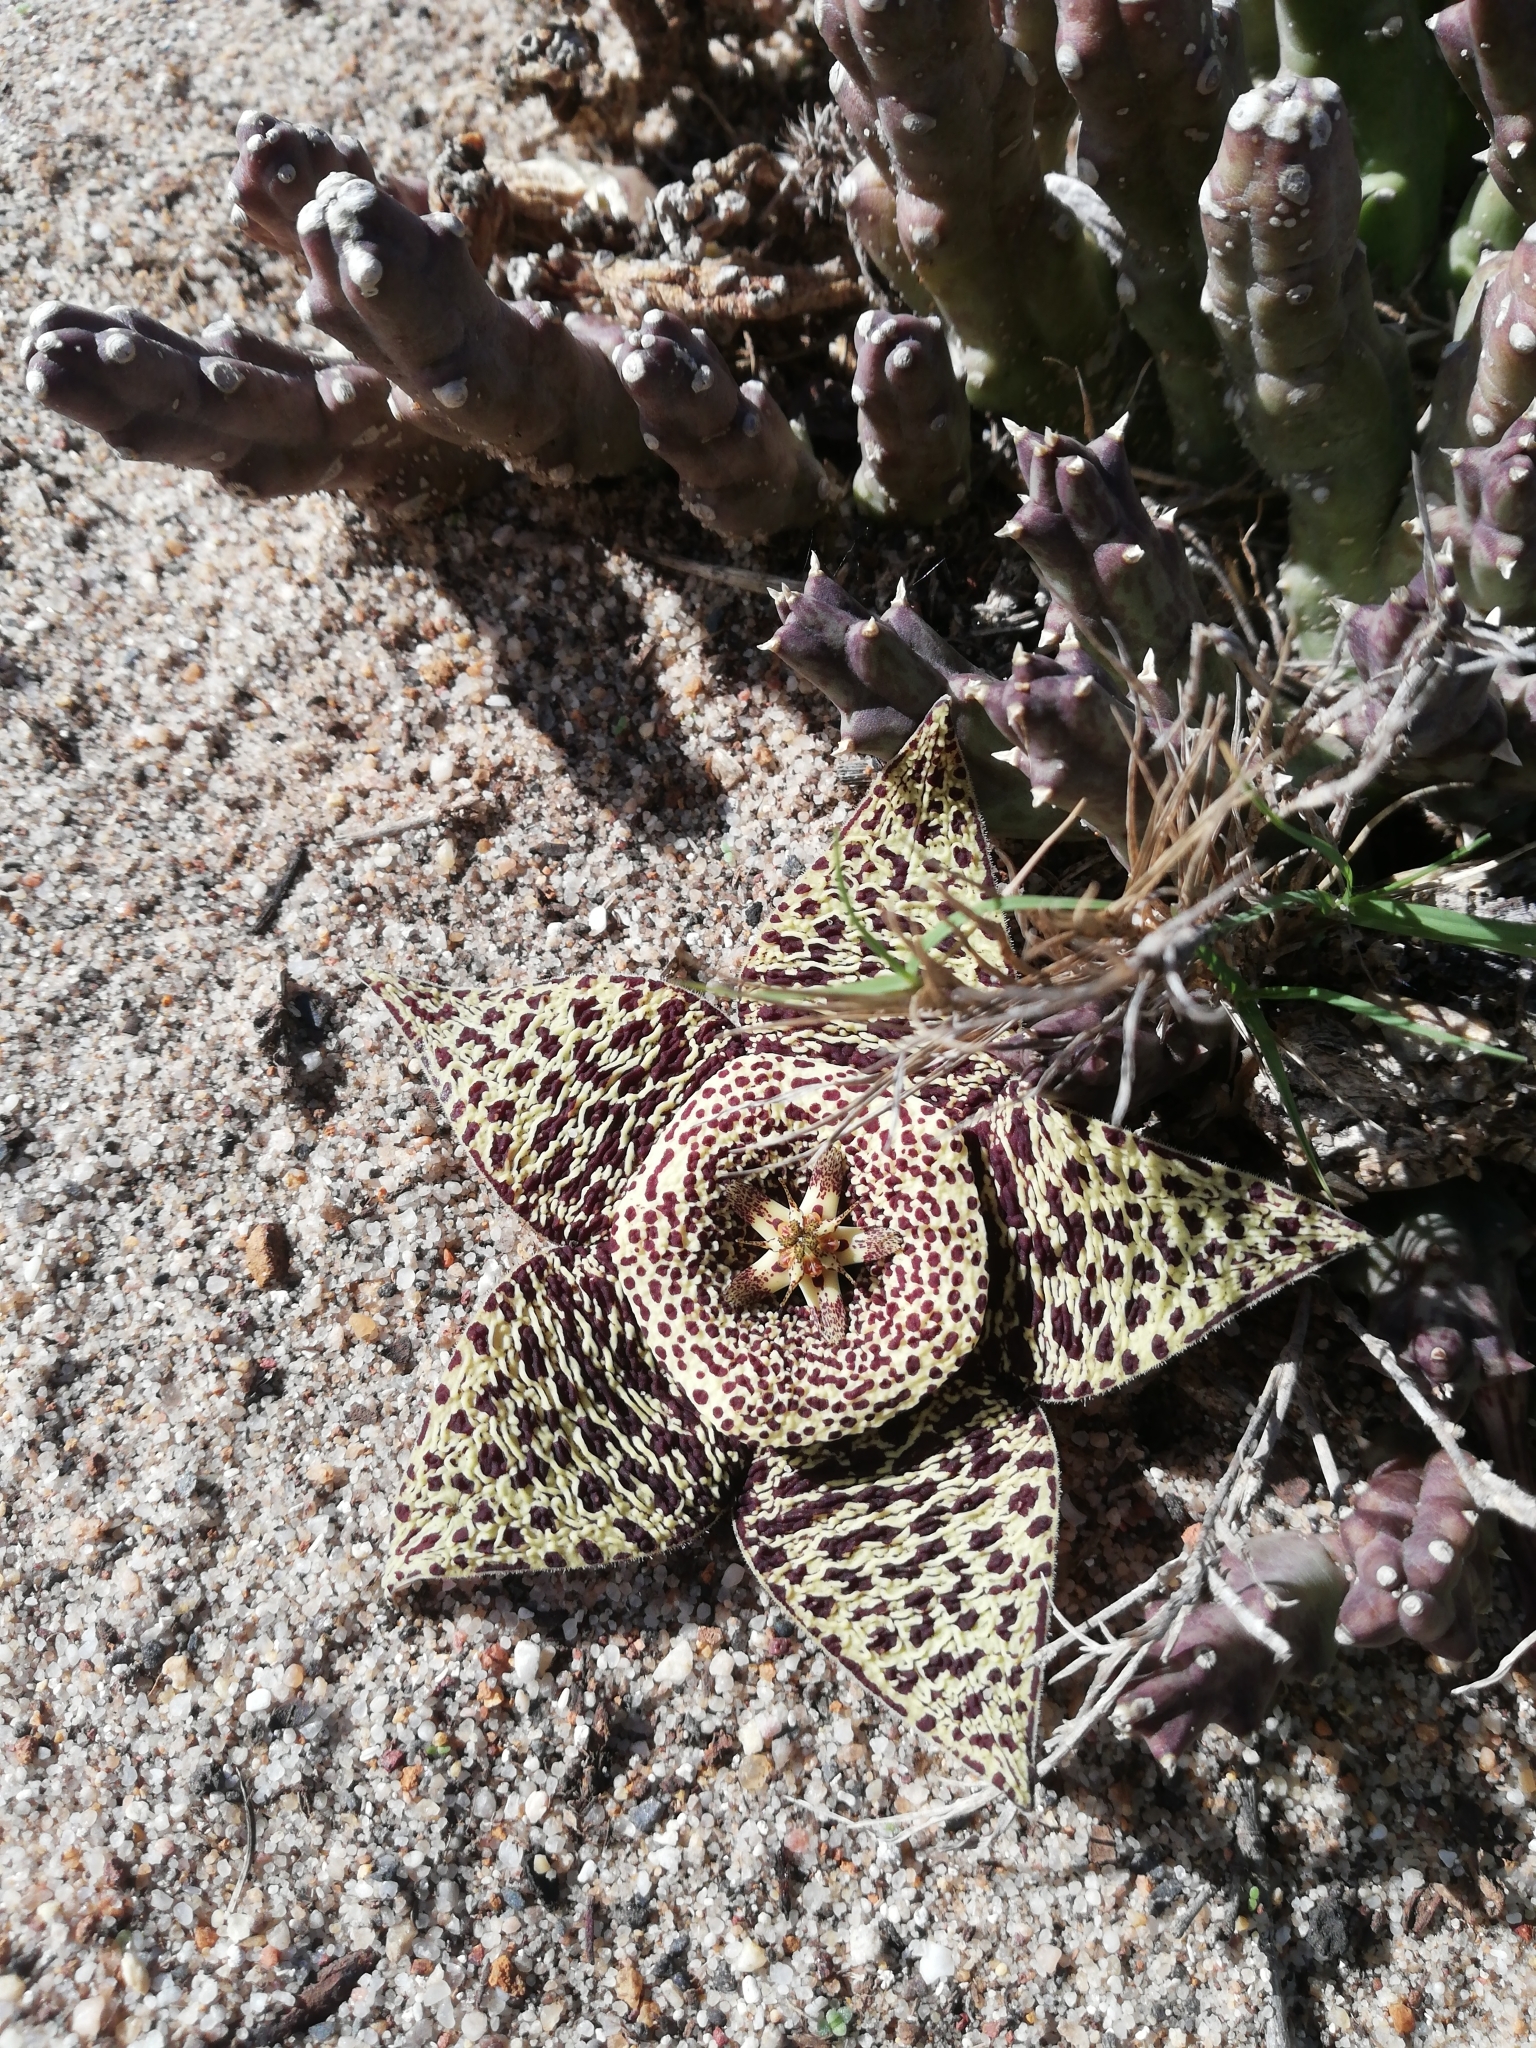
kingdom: Plantae
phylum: Tracheophyta
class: Magnoliopsida
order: Gentianales
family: Apocynaceae
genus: Ceropegia
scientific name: Ceropegia mixta
